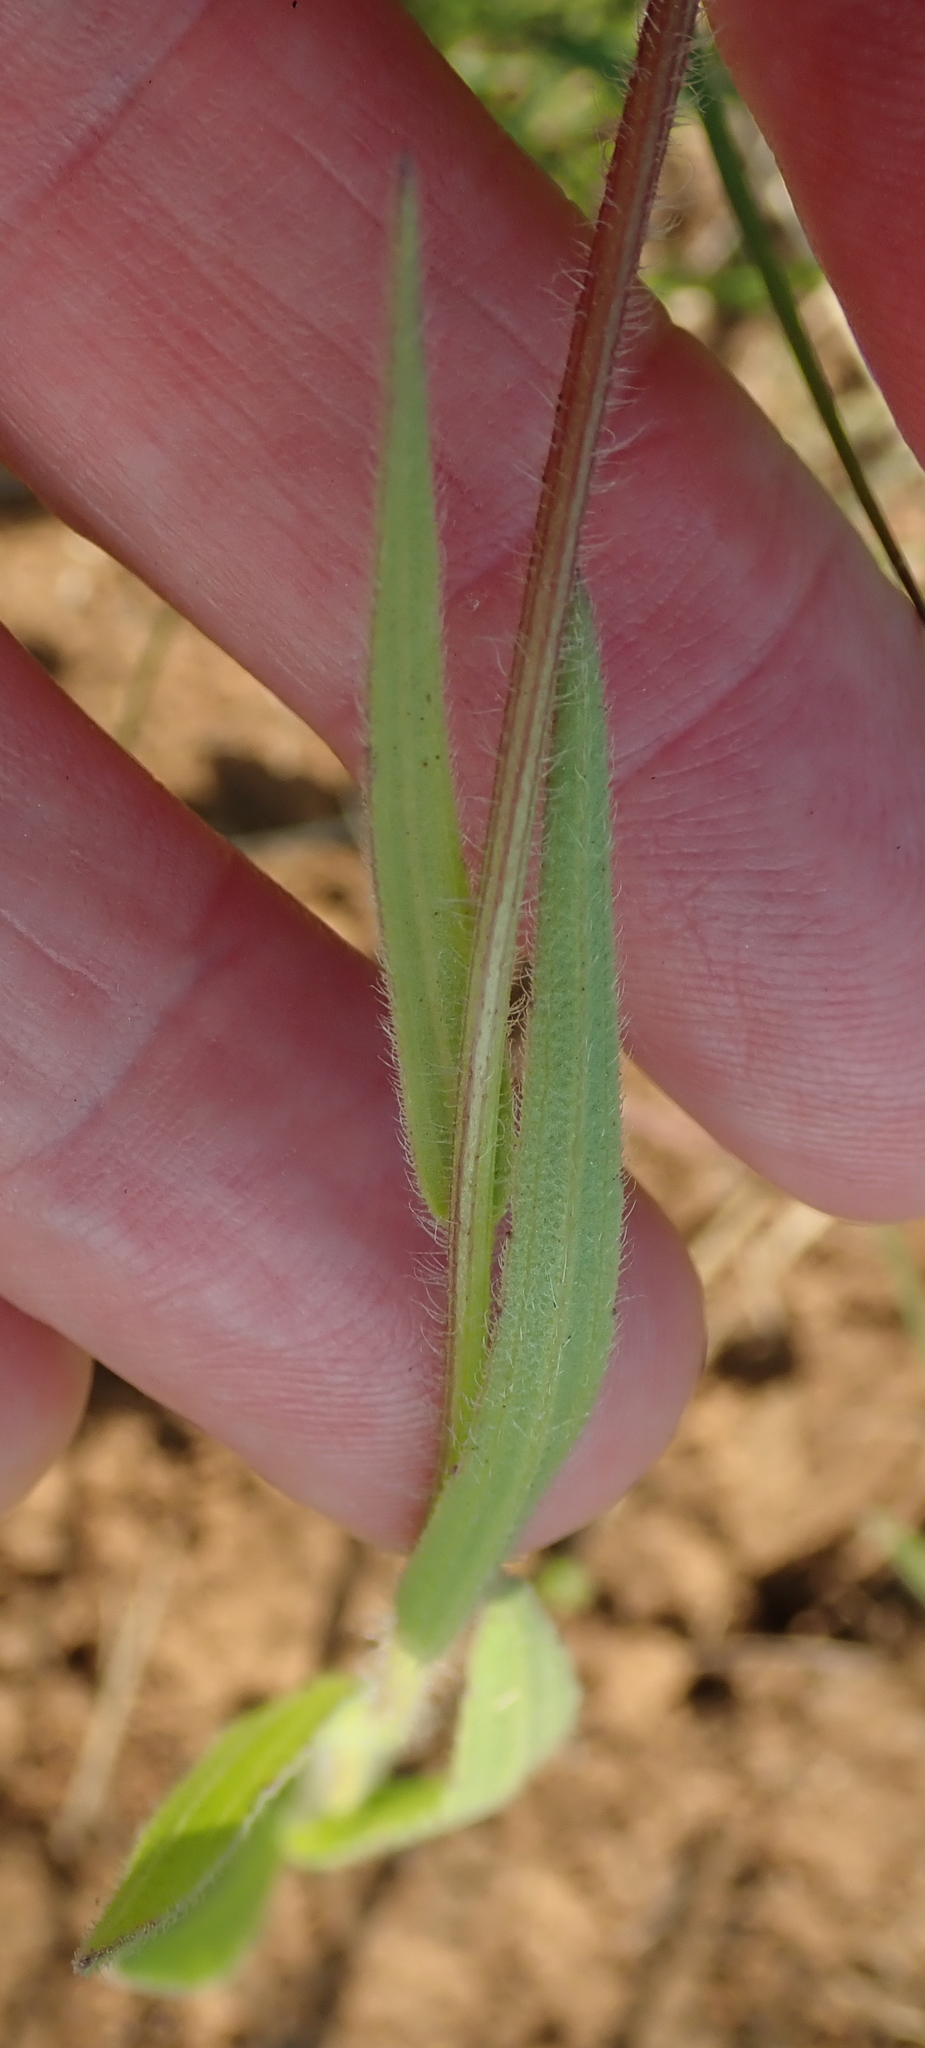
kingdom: Plantae
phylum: Tracheophyta
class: Magnoliopsida
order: Asterales
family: Asteraceae
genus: Afroaster
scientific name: Afroaster hispidus
